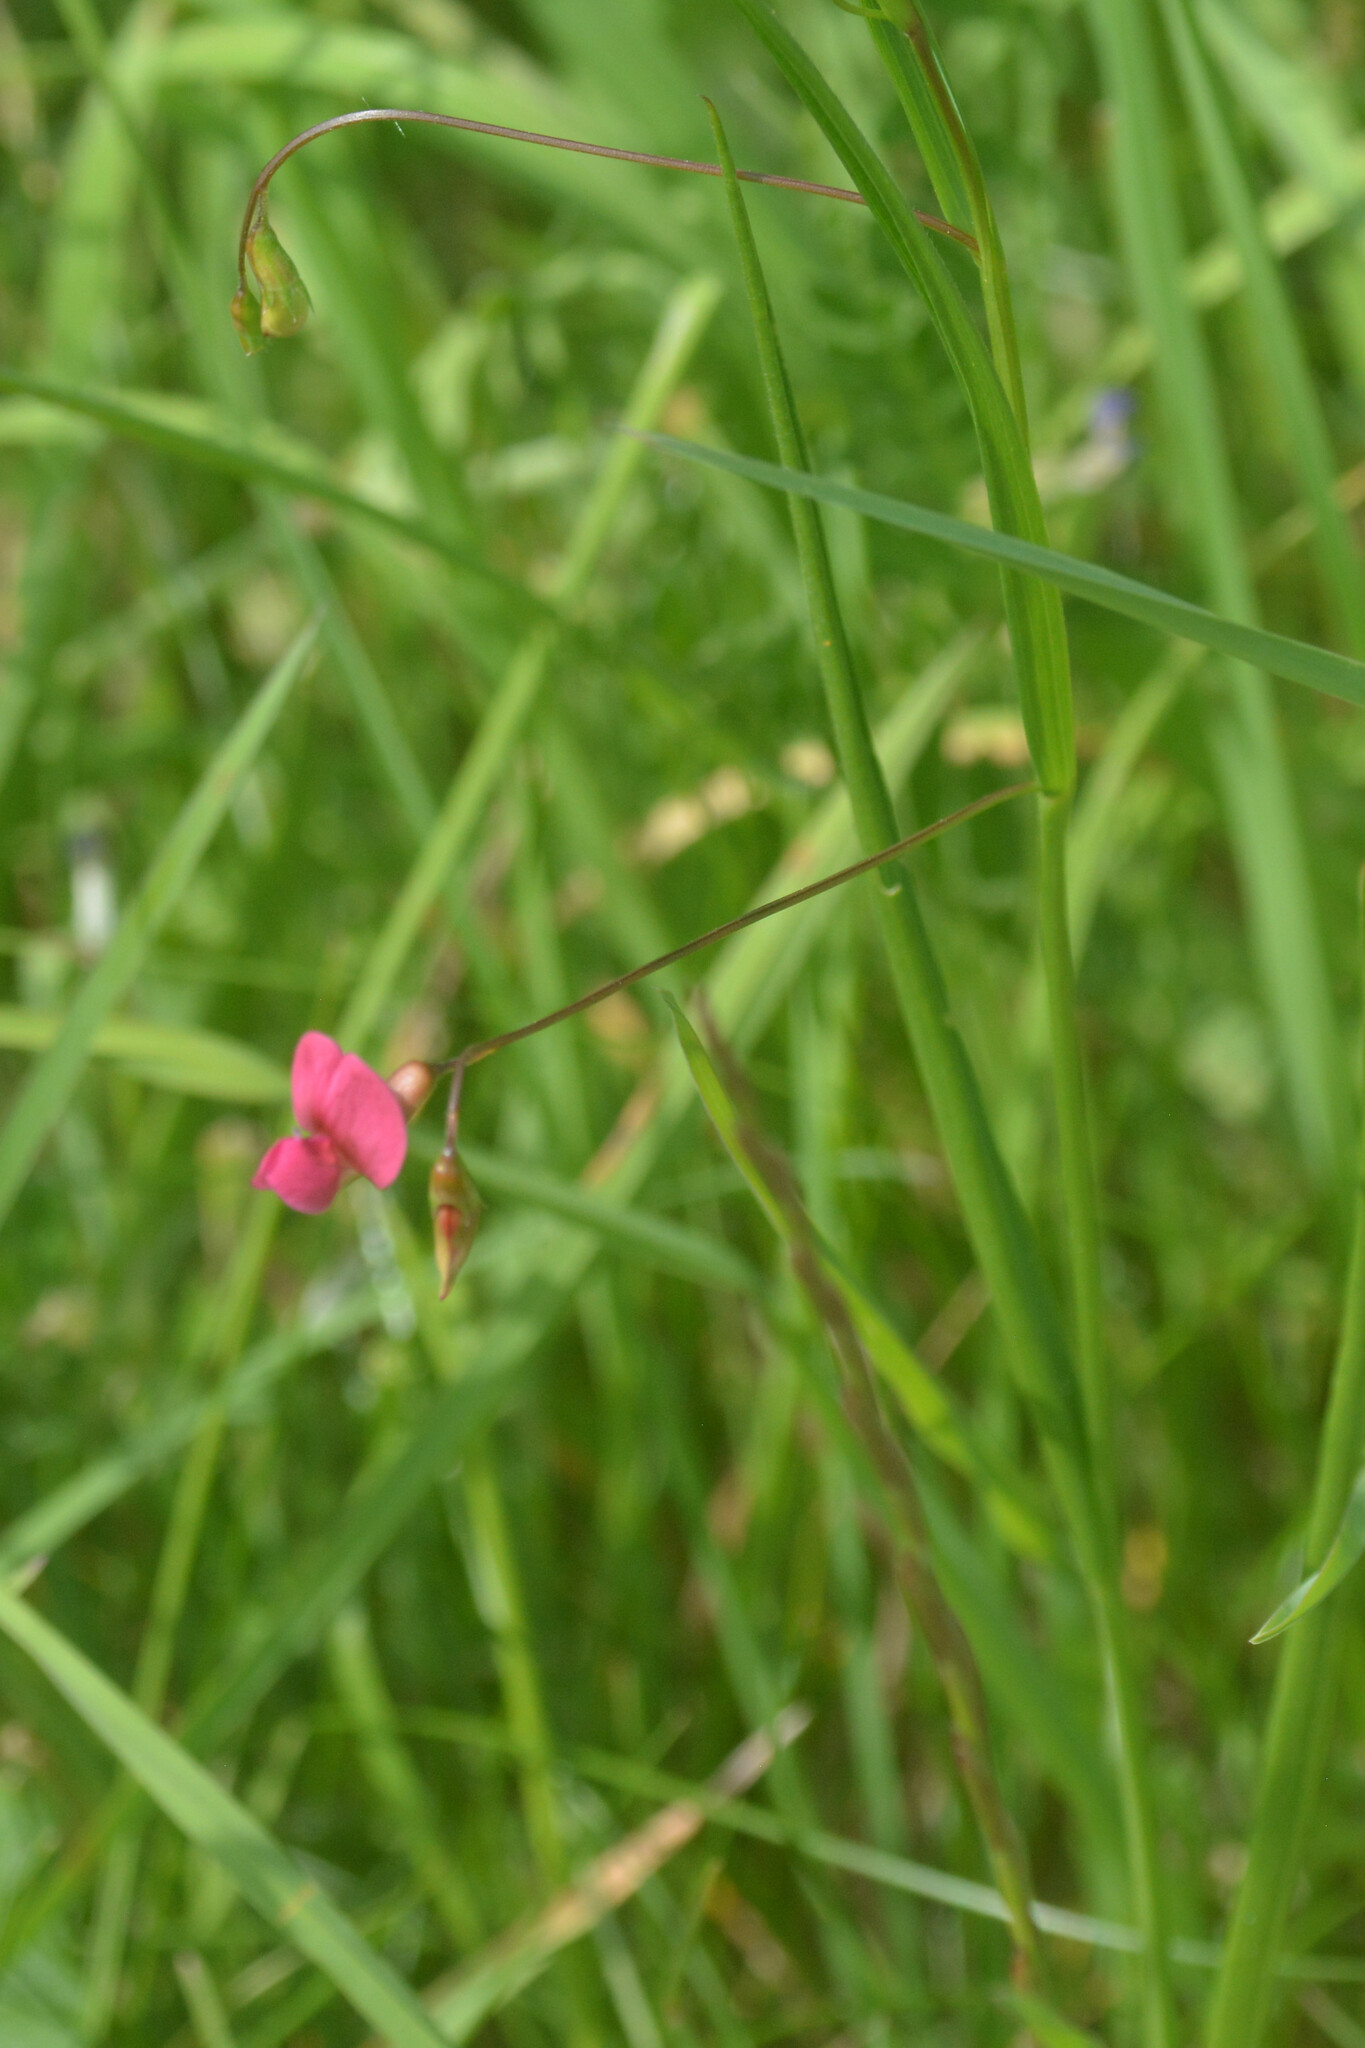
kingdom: Plantae
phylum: Tracheophyta
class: Magnoliopsida
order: Fabales
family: Fabaceae
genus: Lathyrus
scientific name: Lathyrus nissolia
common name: Grass vetchling
